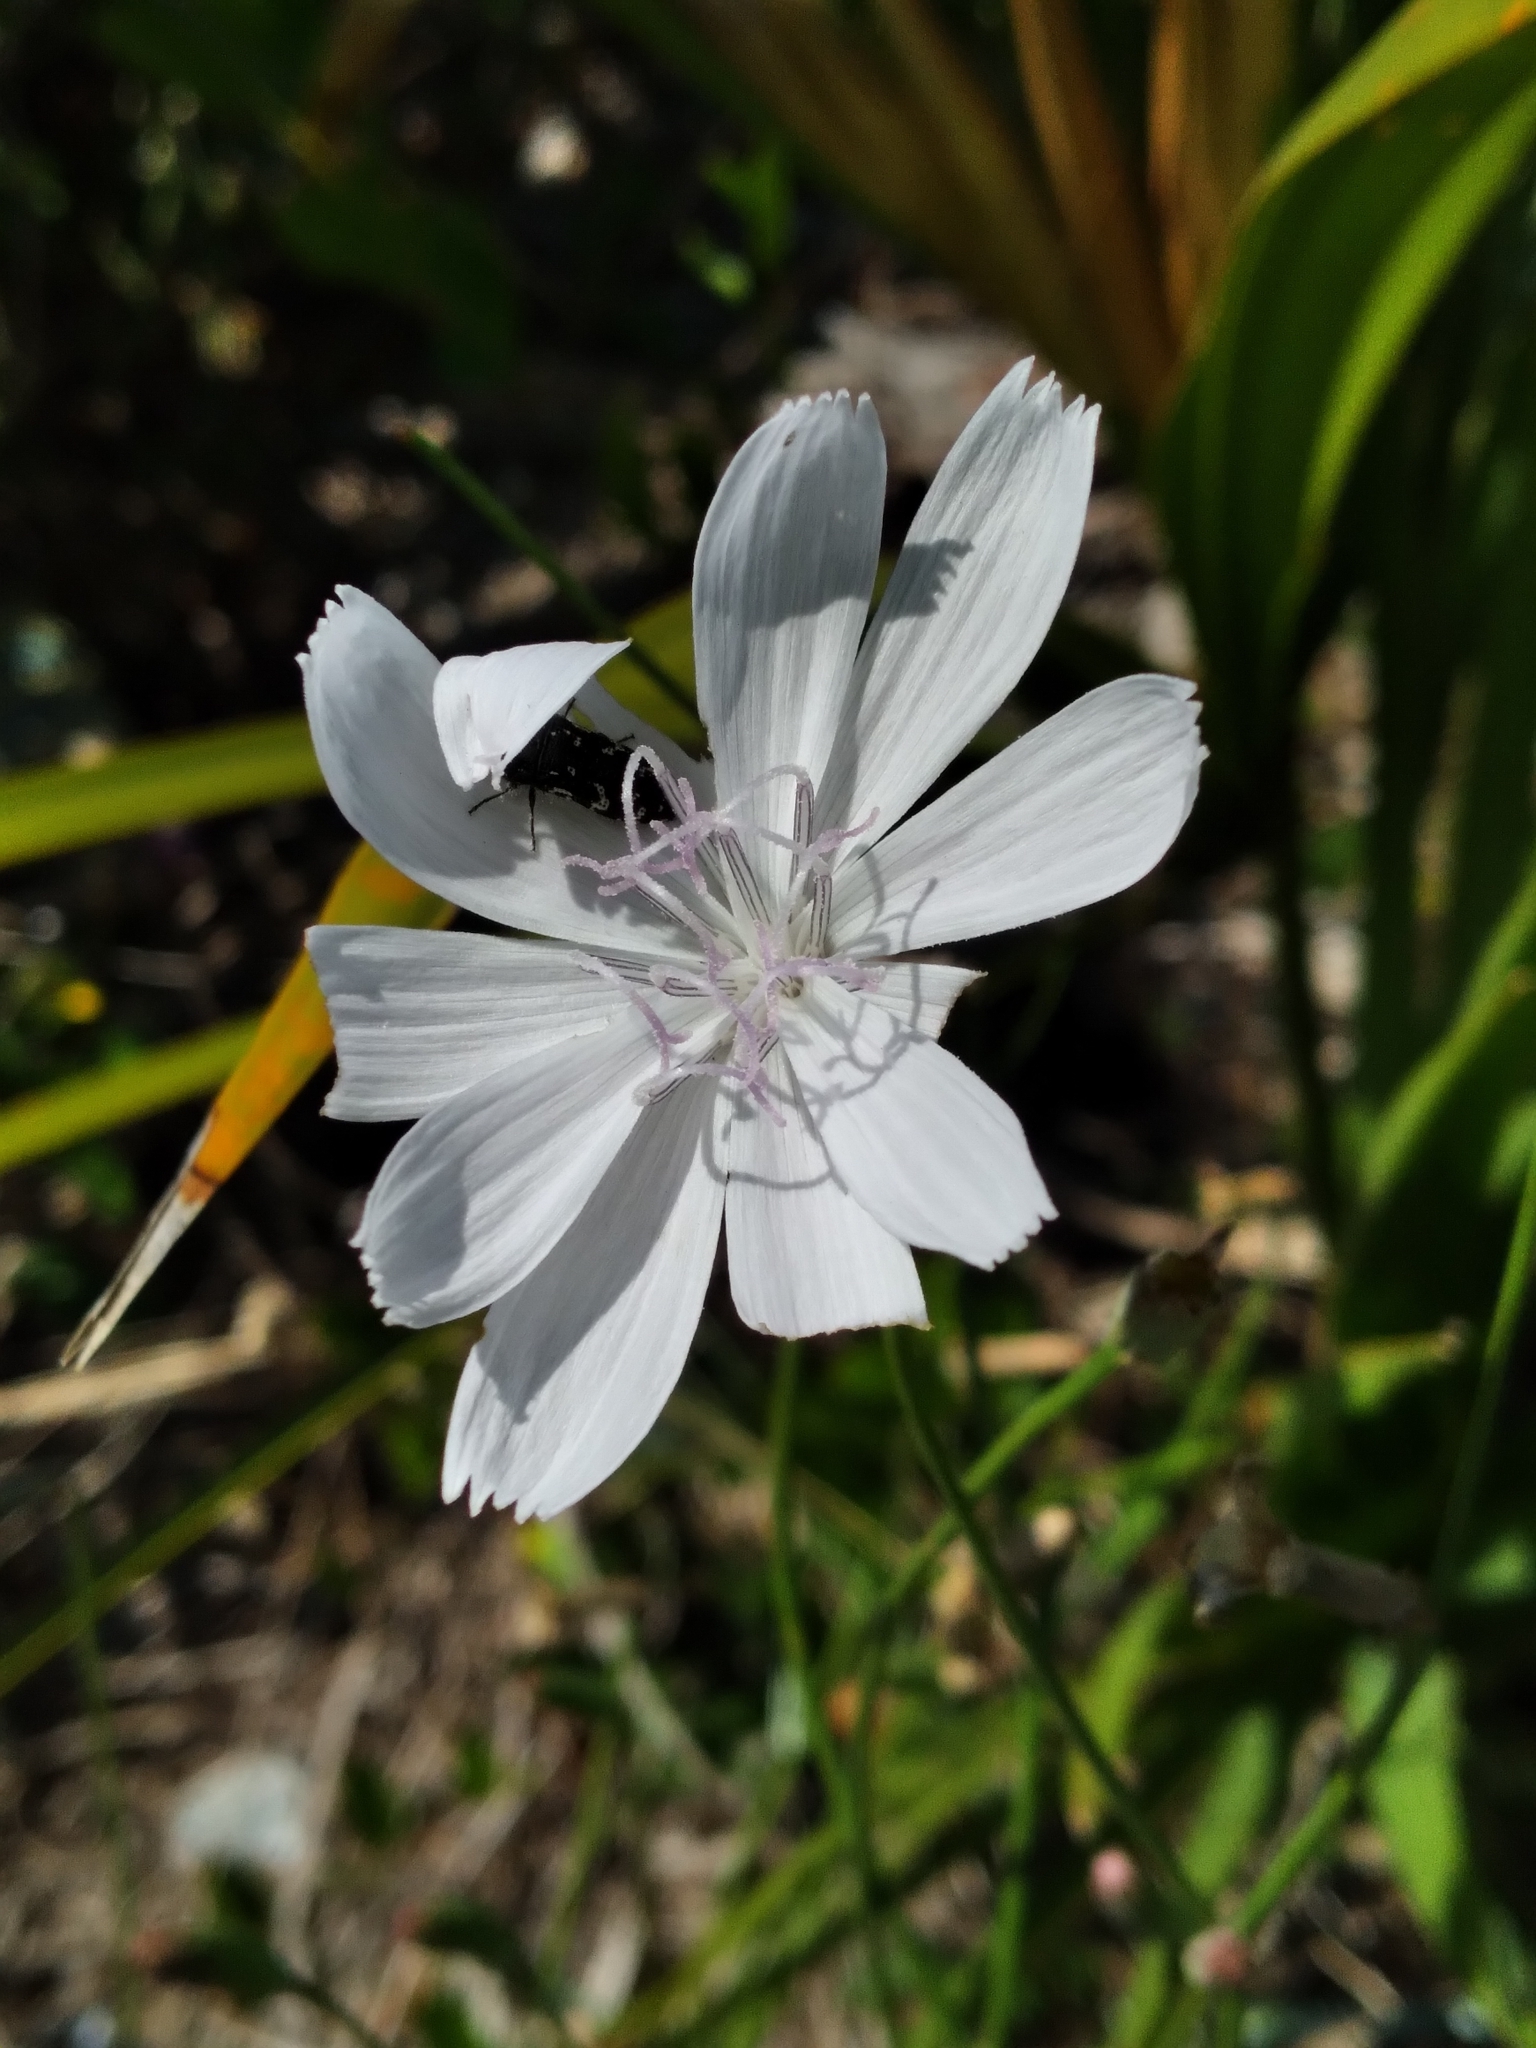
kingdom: Plantae
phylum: Tracheophyta
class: Magnoliopsida
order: Asterales
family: Asteraceae
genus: Lygodesmia
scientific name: Lygodesmia aphylla
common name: Rose-rush
